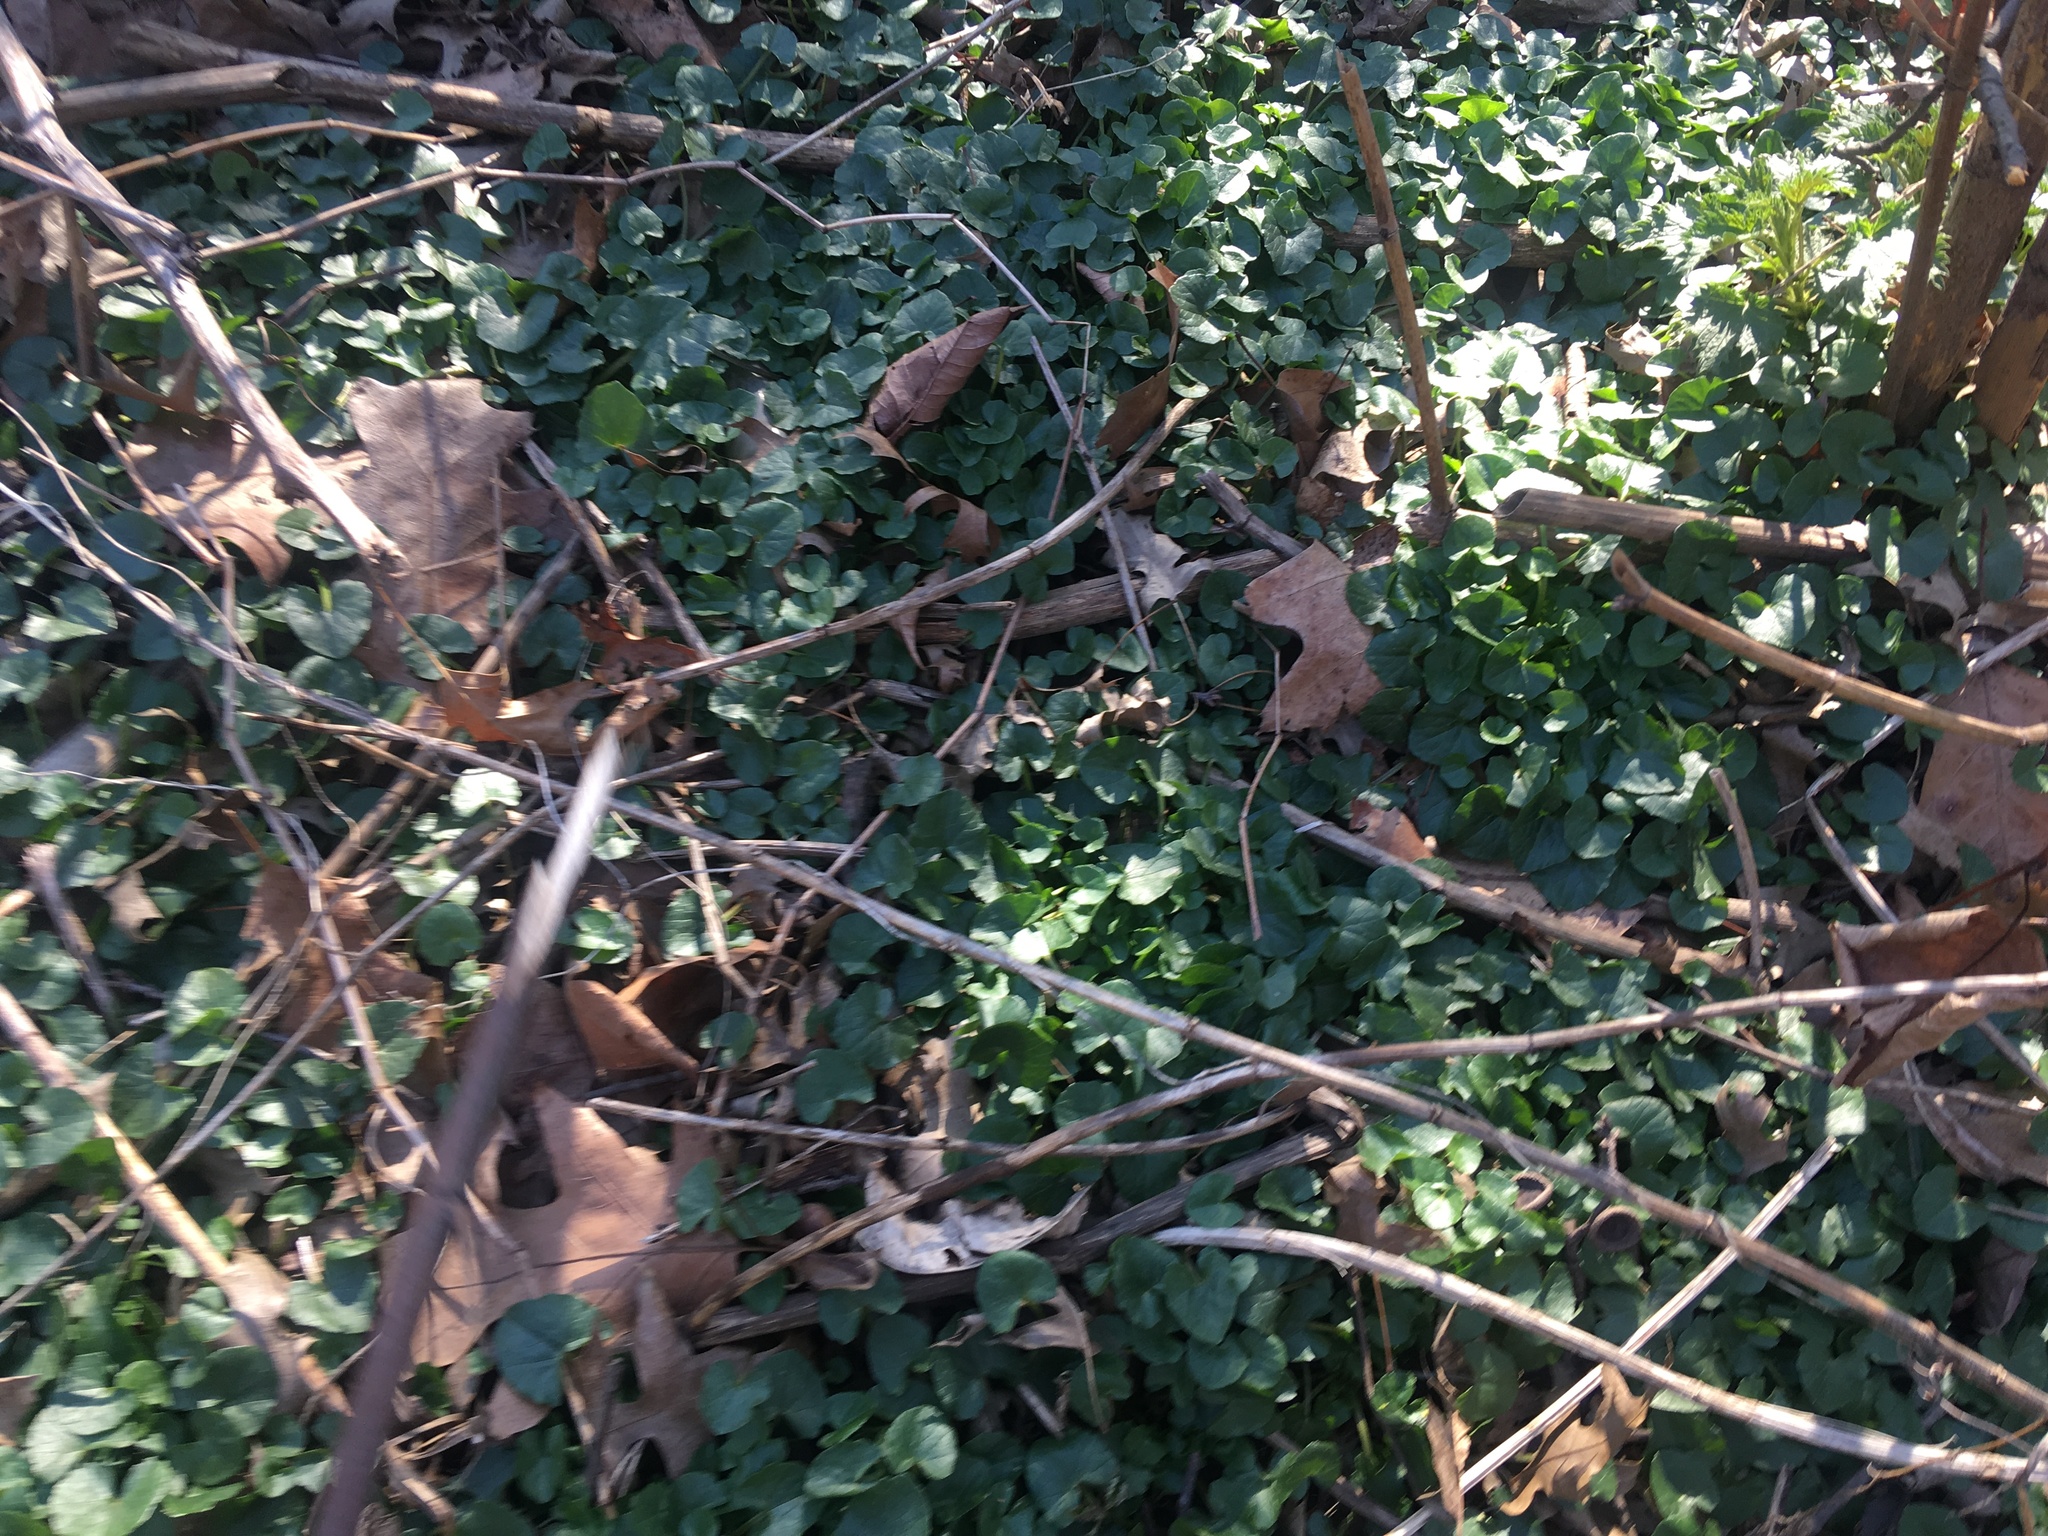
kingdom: Plantae
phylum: Tracheophyta
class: Magnoliopsida
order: Ranunculales
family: Ranunculaceae
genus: Ficaria
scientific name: Ficaria verna
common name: Lesser celandine
